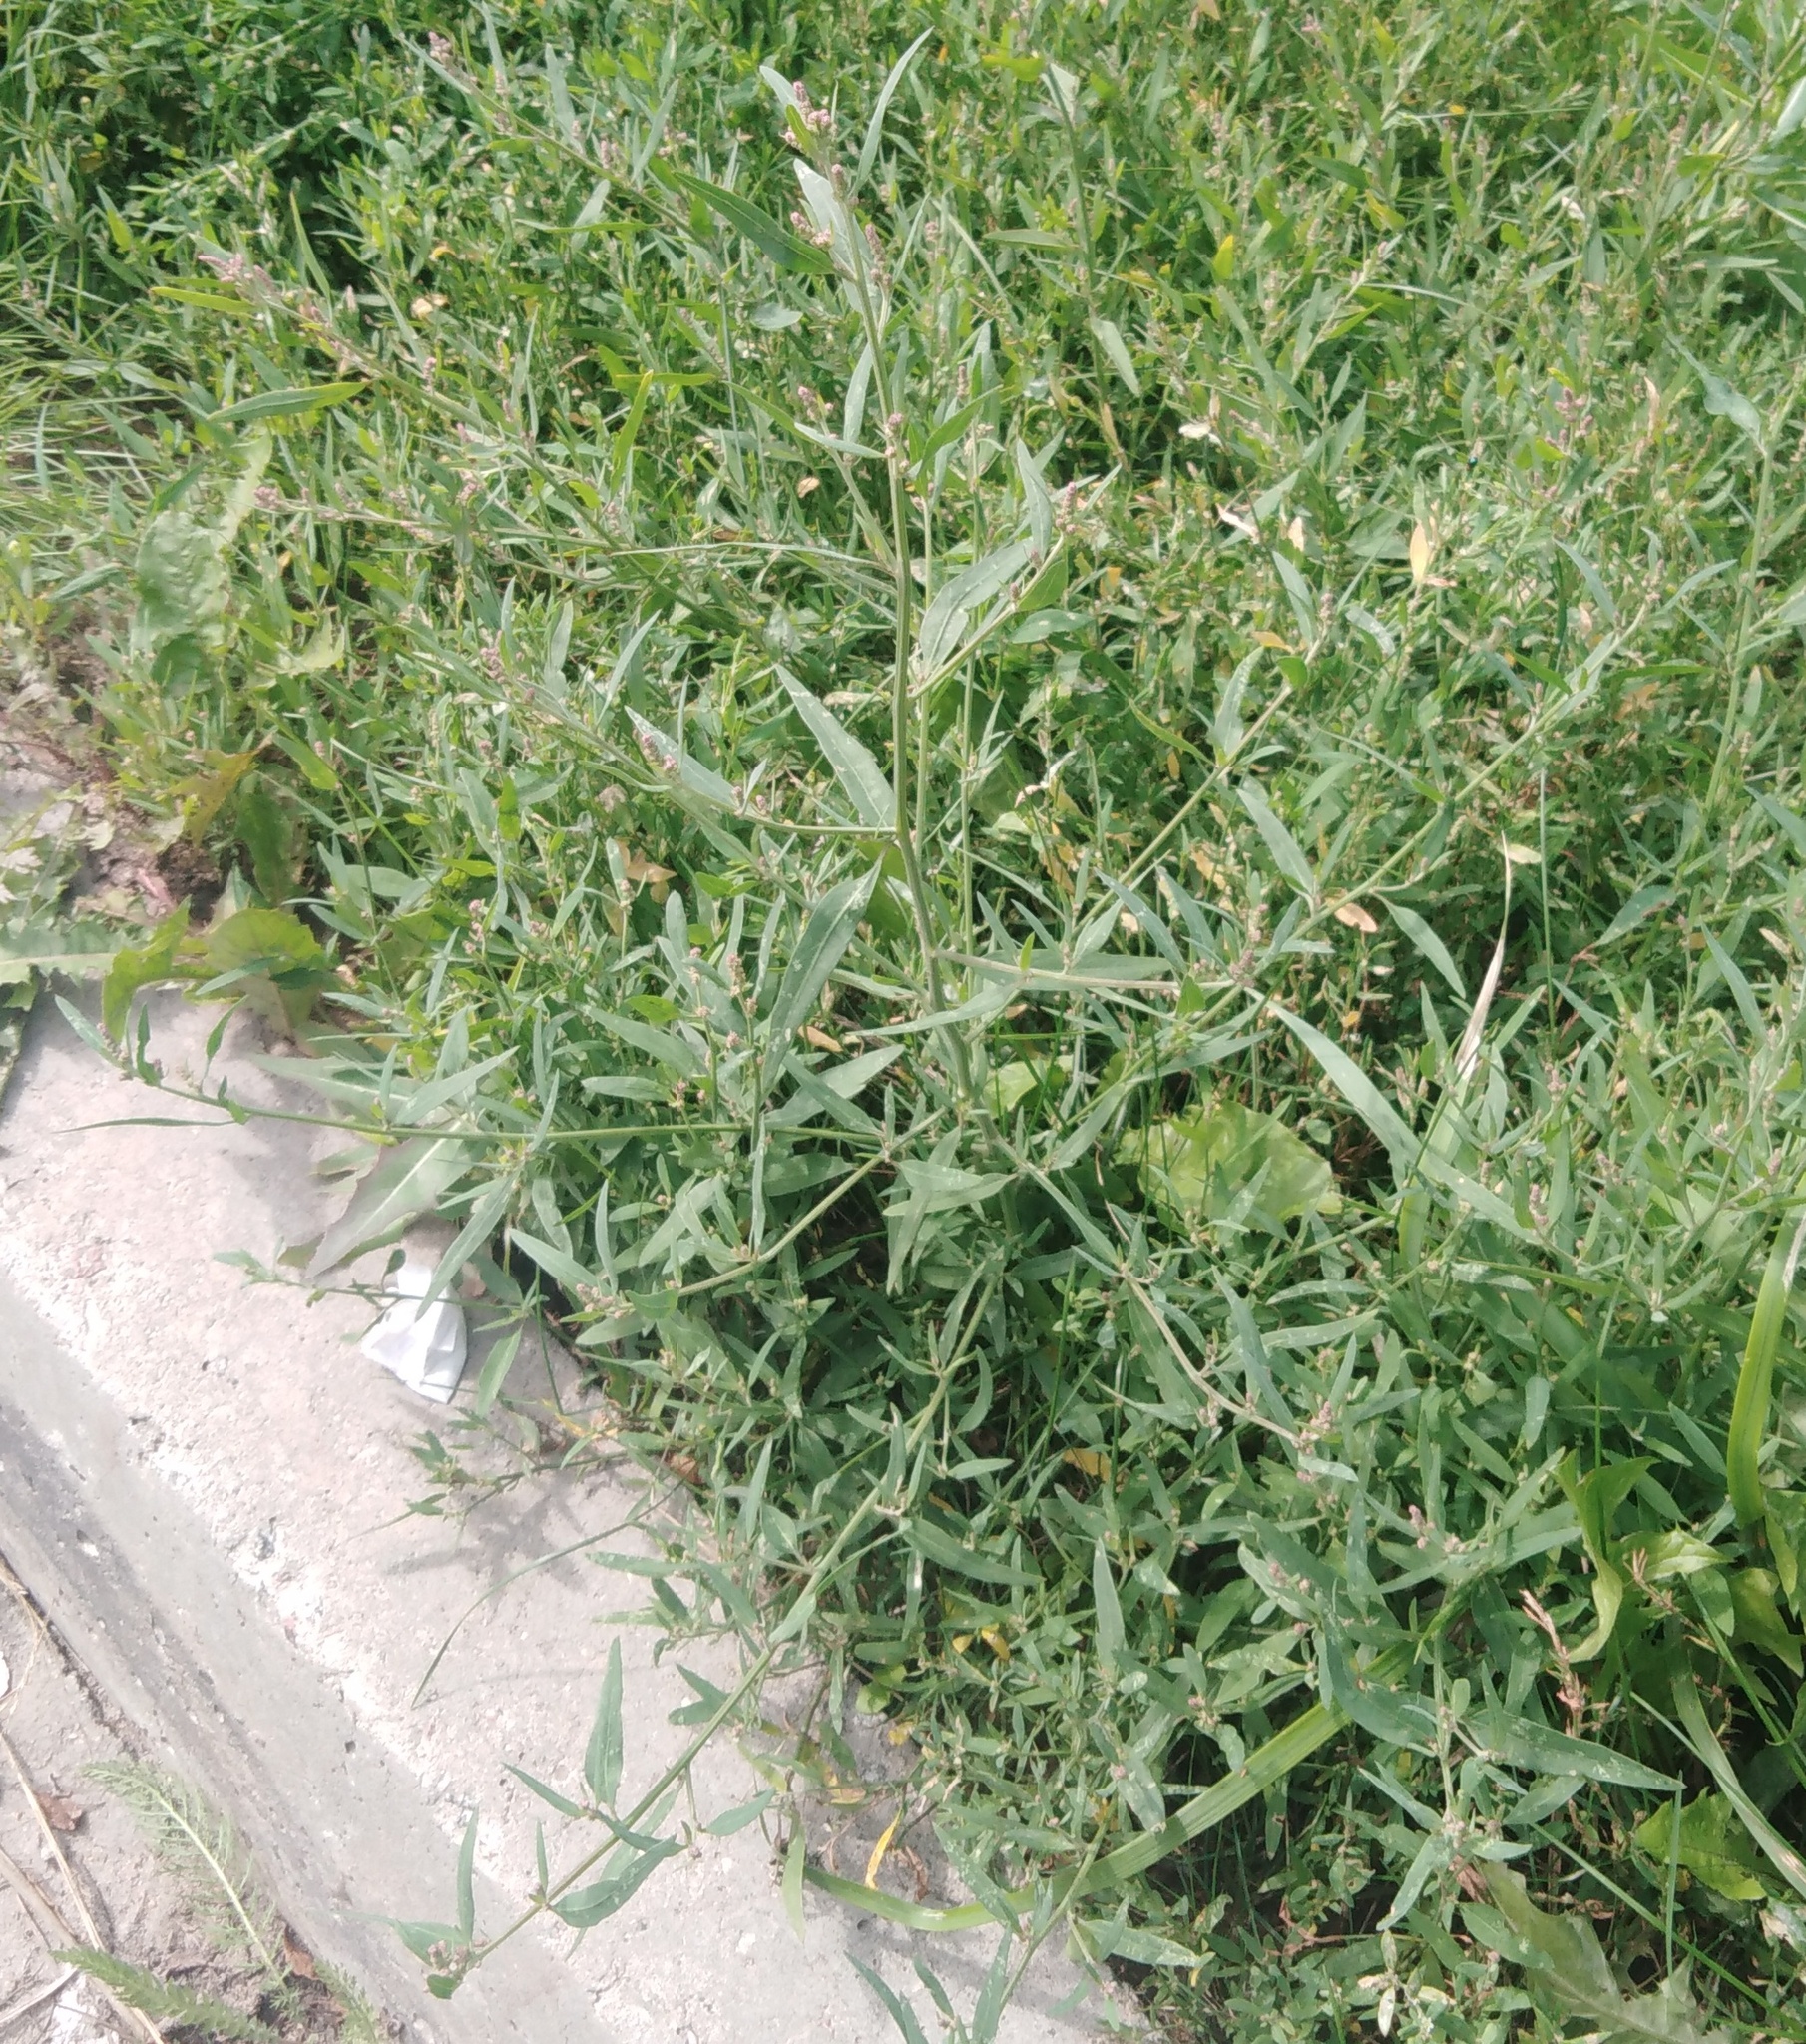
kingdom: Plantae
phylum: Tracheophyta
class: Magnoliopsida
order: Caryophyllales
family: Amaranthaceae
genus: Atriplex
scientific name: Atriplex oblongifolia
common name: Oblongleaf orache
